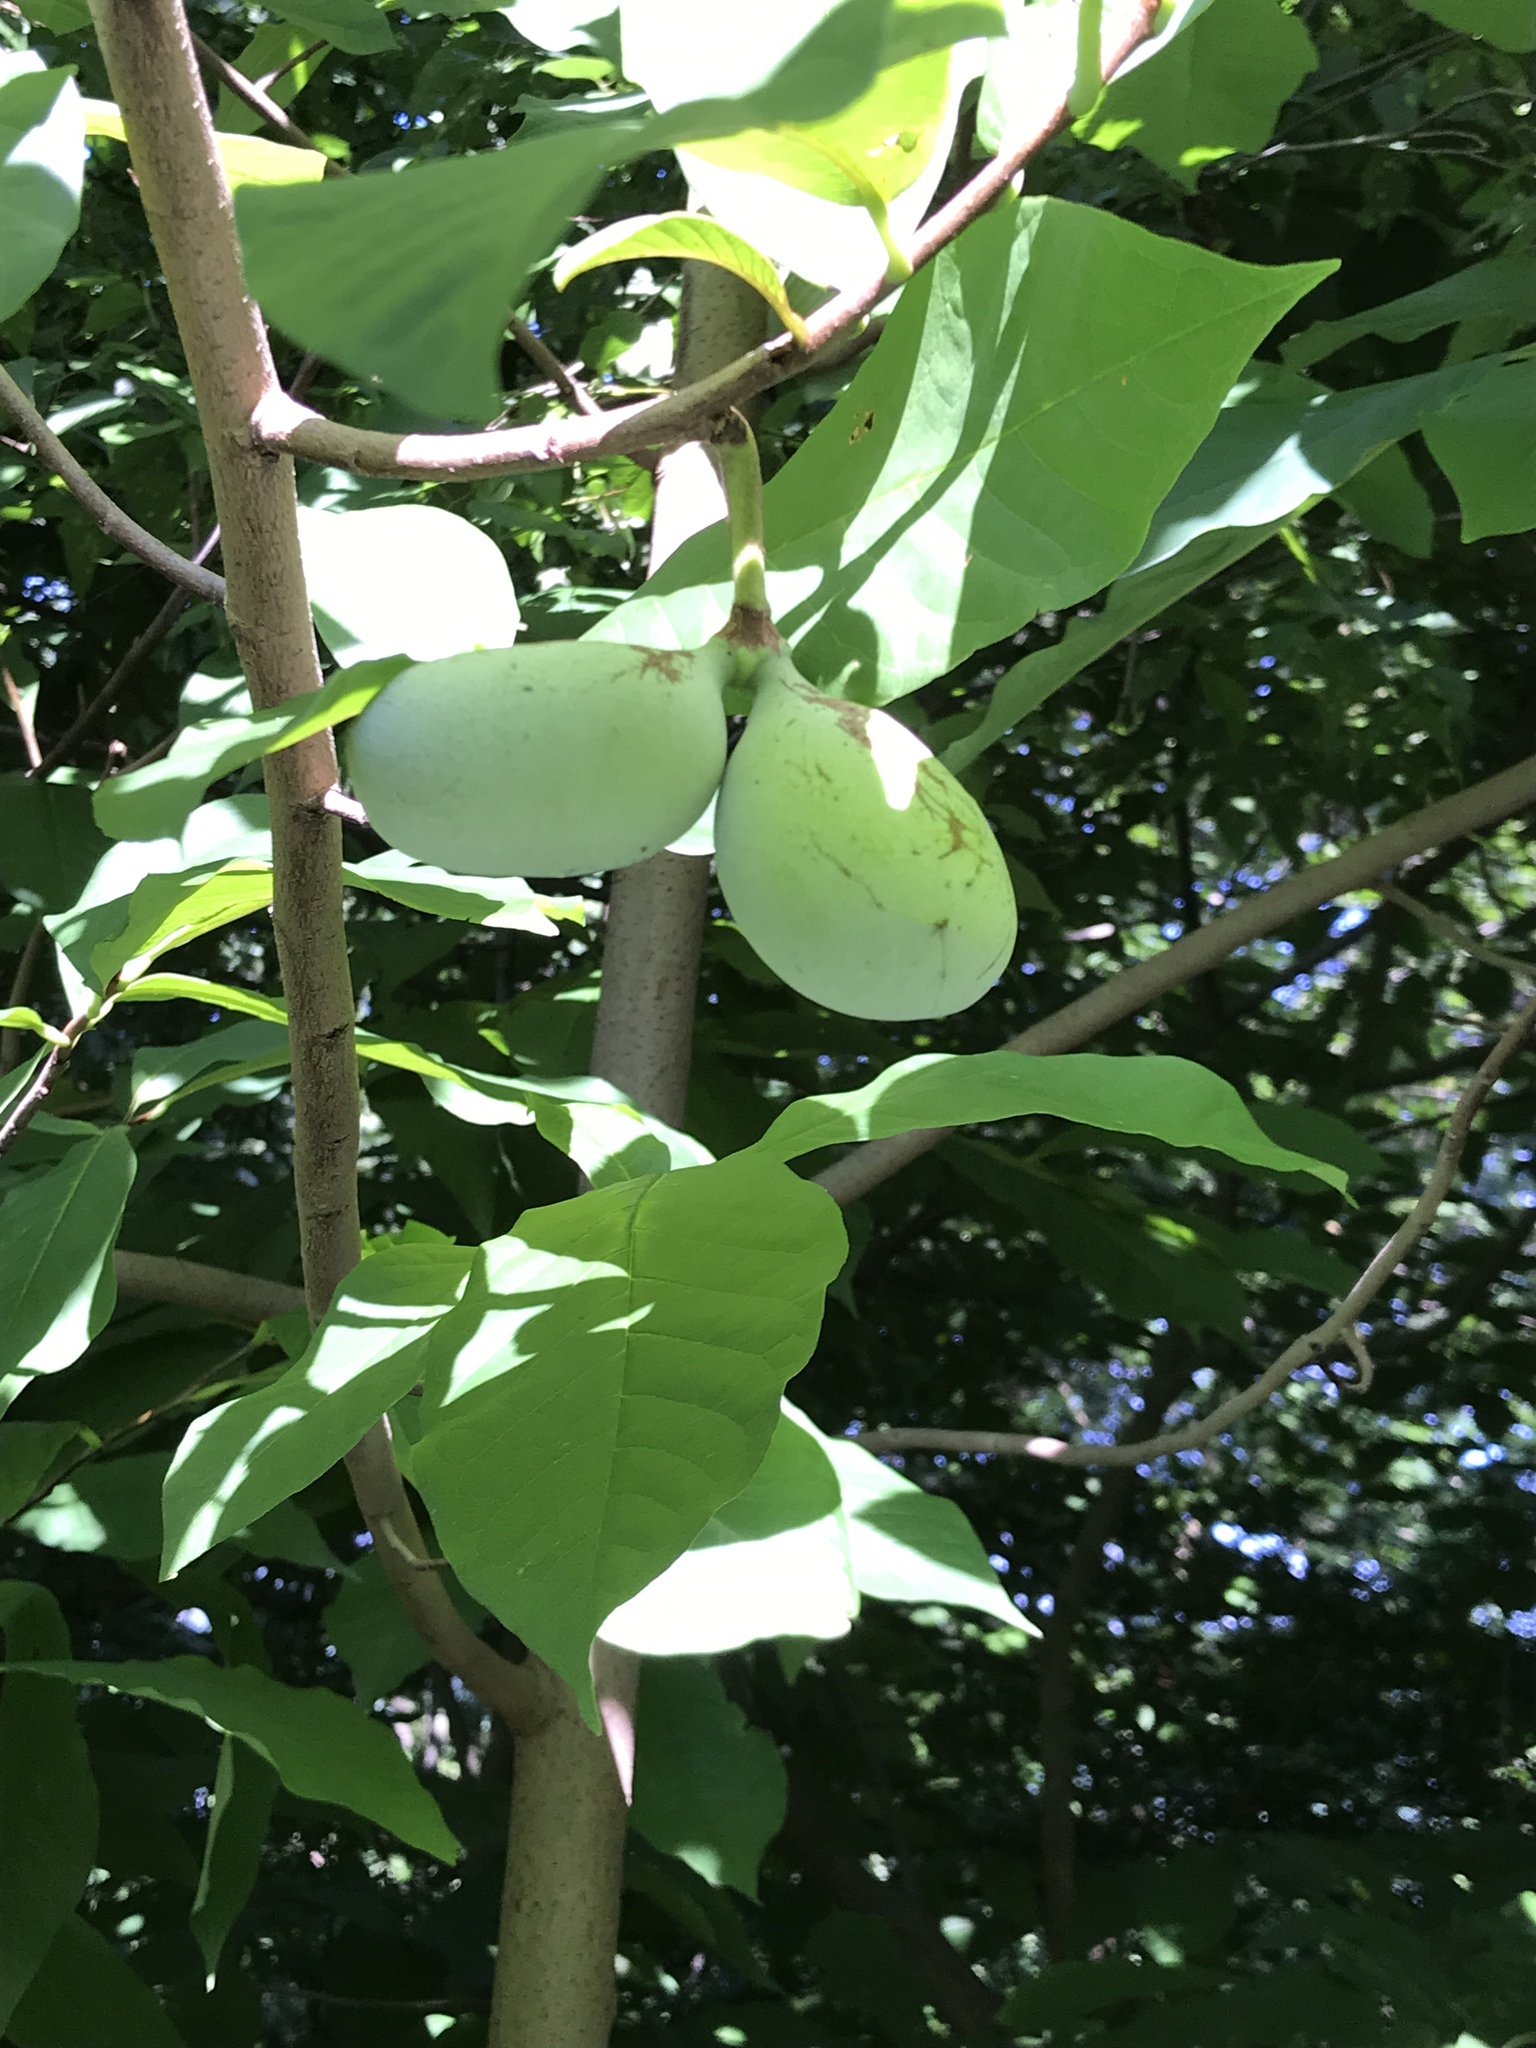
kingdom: Plantae
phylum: Tracheophyta
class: Magnoliopsida
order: Magnoliales
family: Annonaceae
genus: Asimina
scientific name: Asimina triloba
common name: Dog-banana
